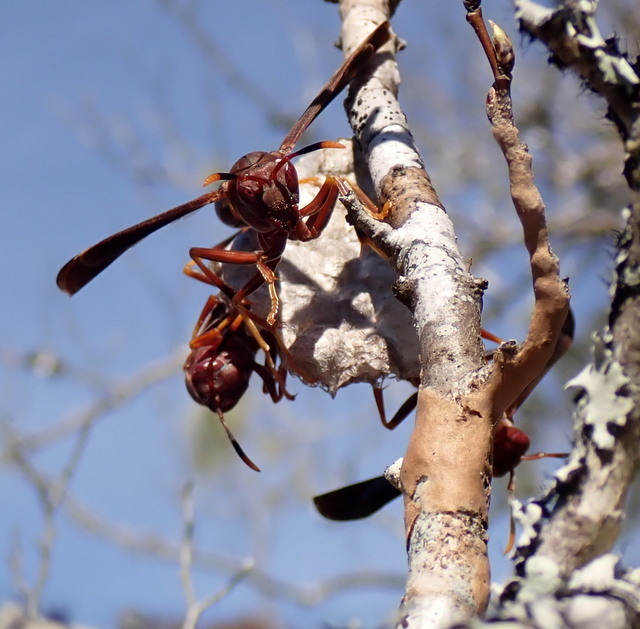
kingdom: Animalia
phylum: Arthropoda
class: Insecta
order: Hymenoptera
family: Eumenidae
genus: Polistes
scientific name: Polistes annularis
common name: Ringed paper wasp
